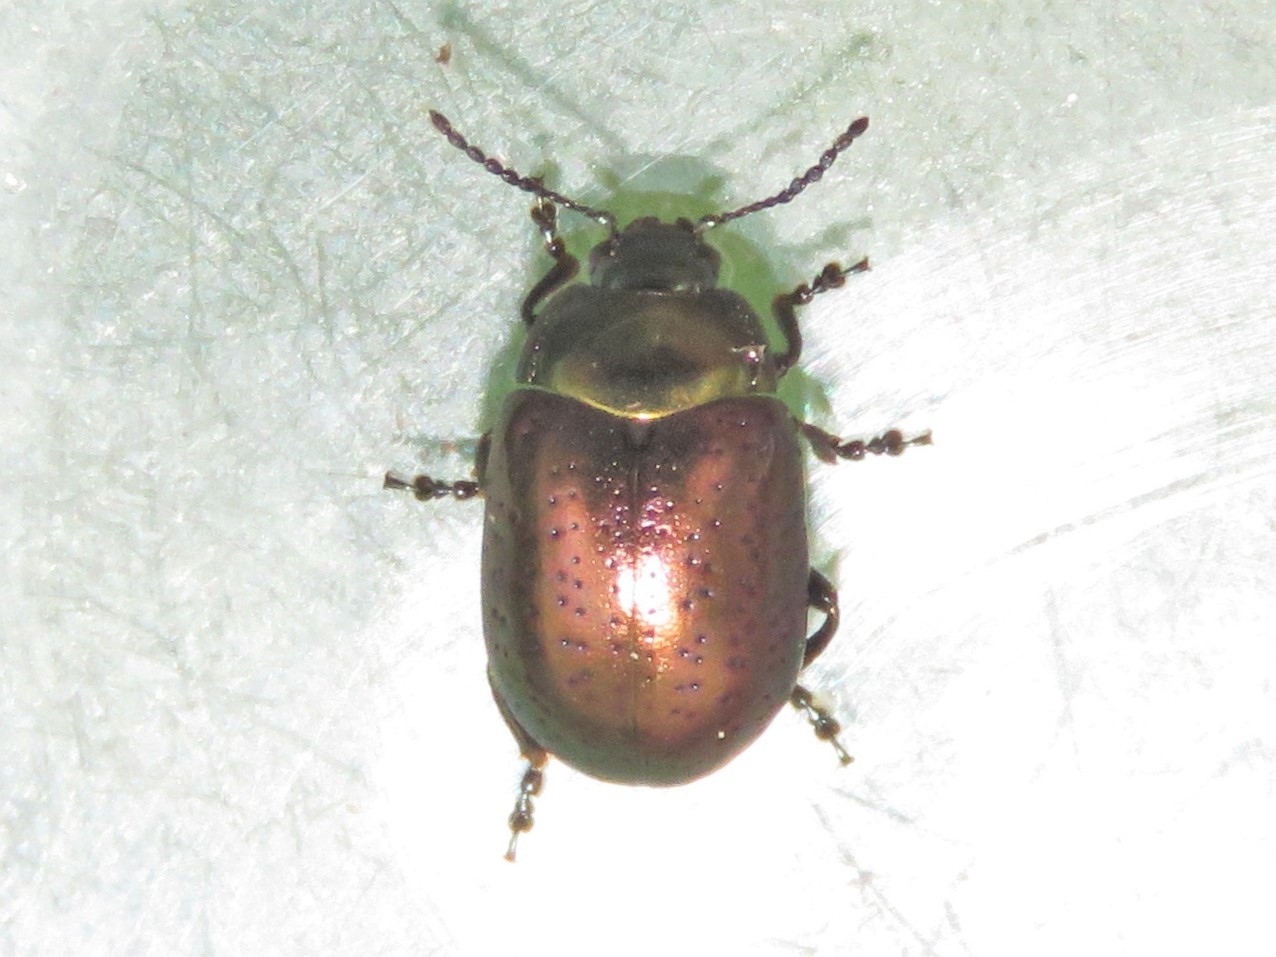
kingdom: Animalia
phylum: Arthropoda
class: Insecta
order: Coleoptera
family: Chrysomelidae
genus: Chrysolina
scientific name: Chrysolina hyperici
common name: St. johnswort beetle
